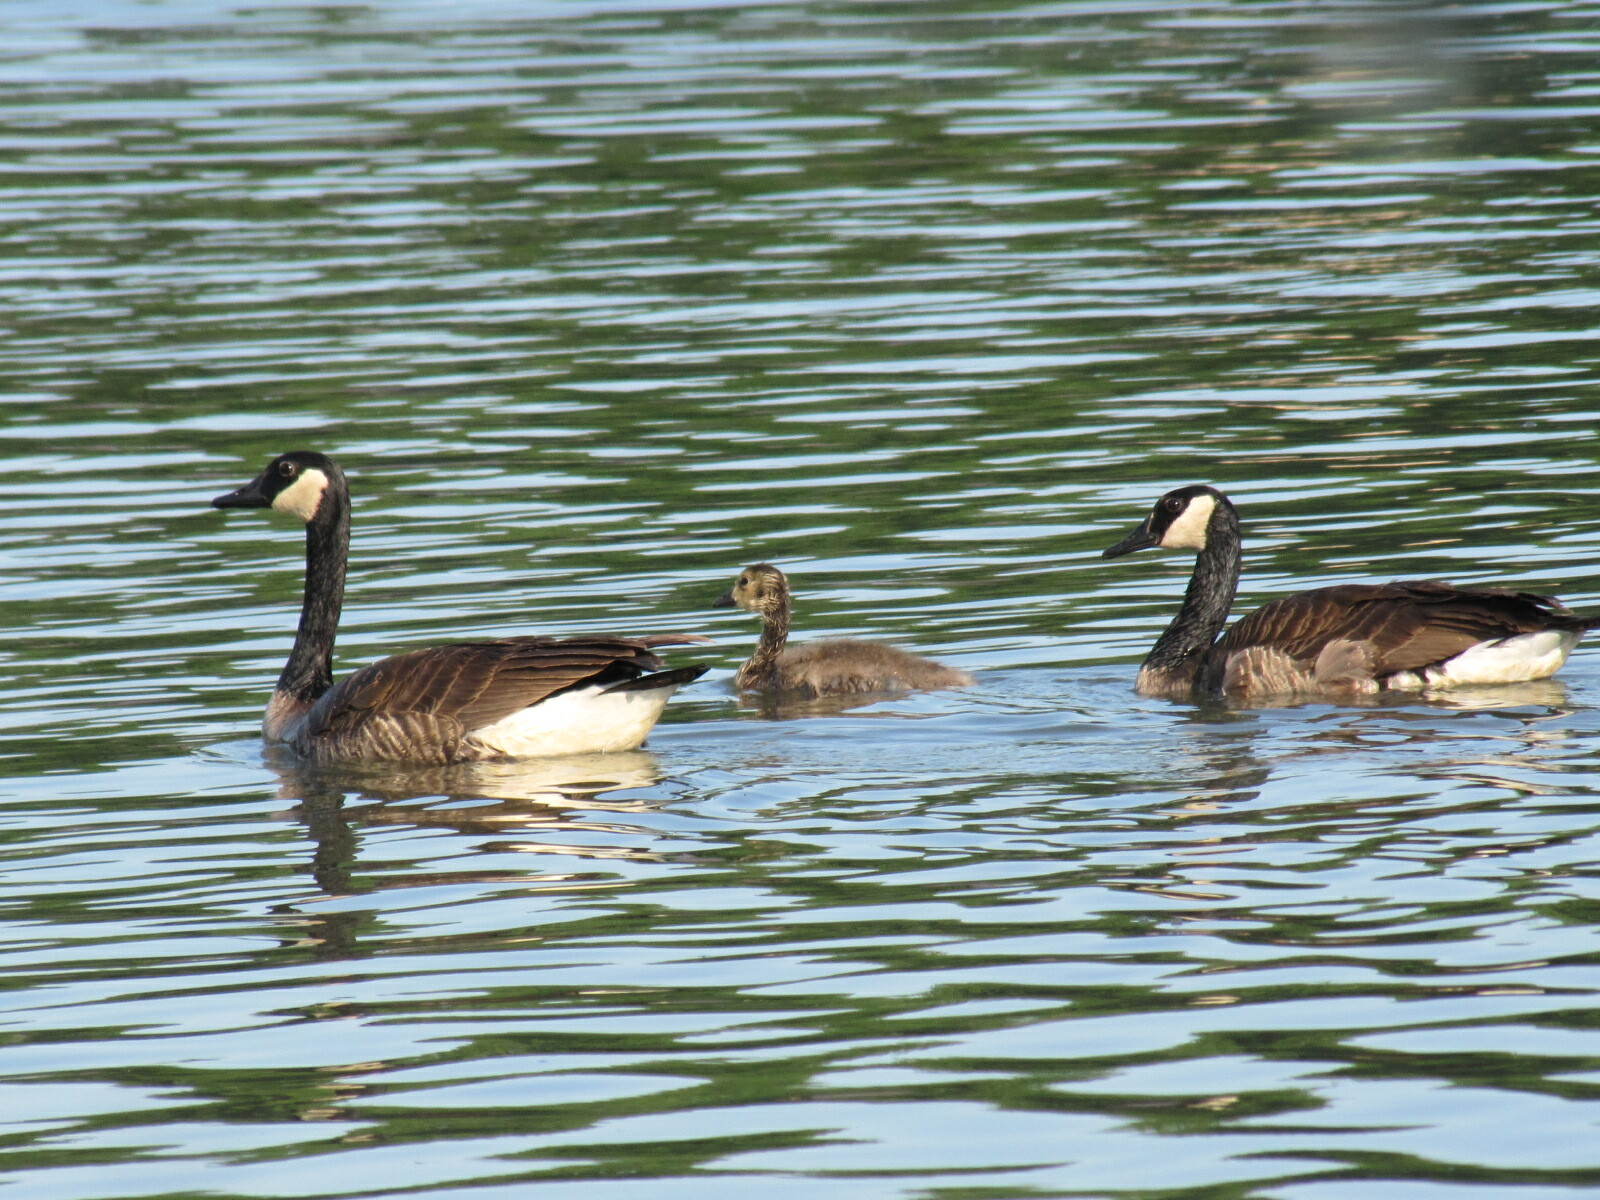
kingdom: Animalia
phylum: Chordata
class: Aves
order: Anseriformes
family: Anatidae
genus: Branta
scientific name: Branta canadensis
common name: Canada goose
